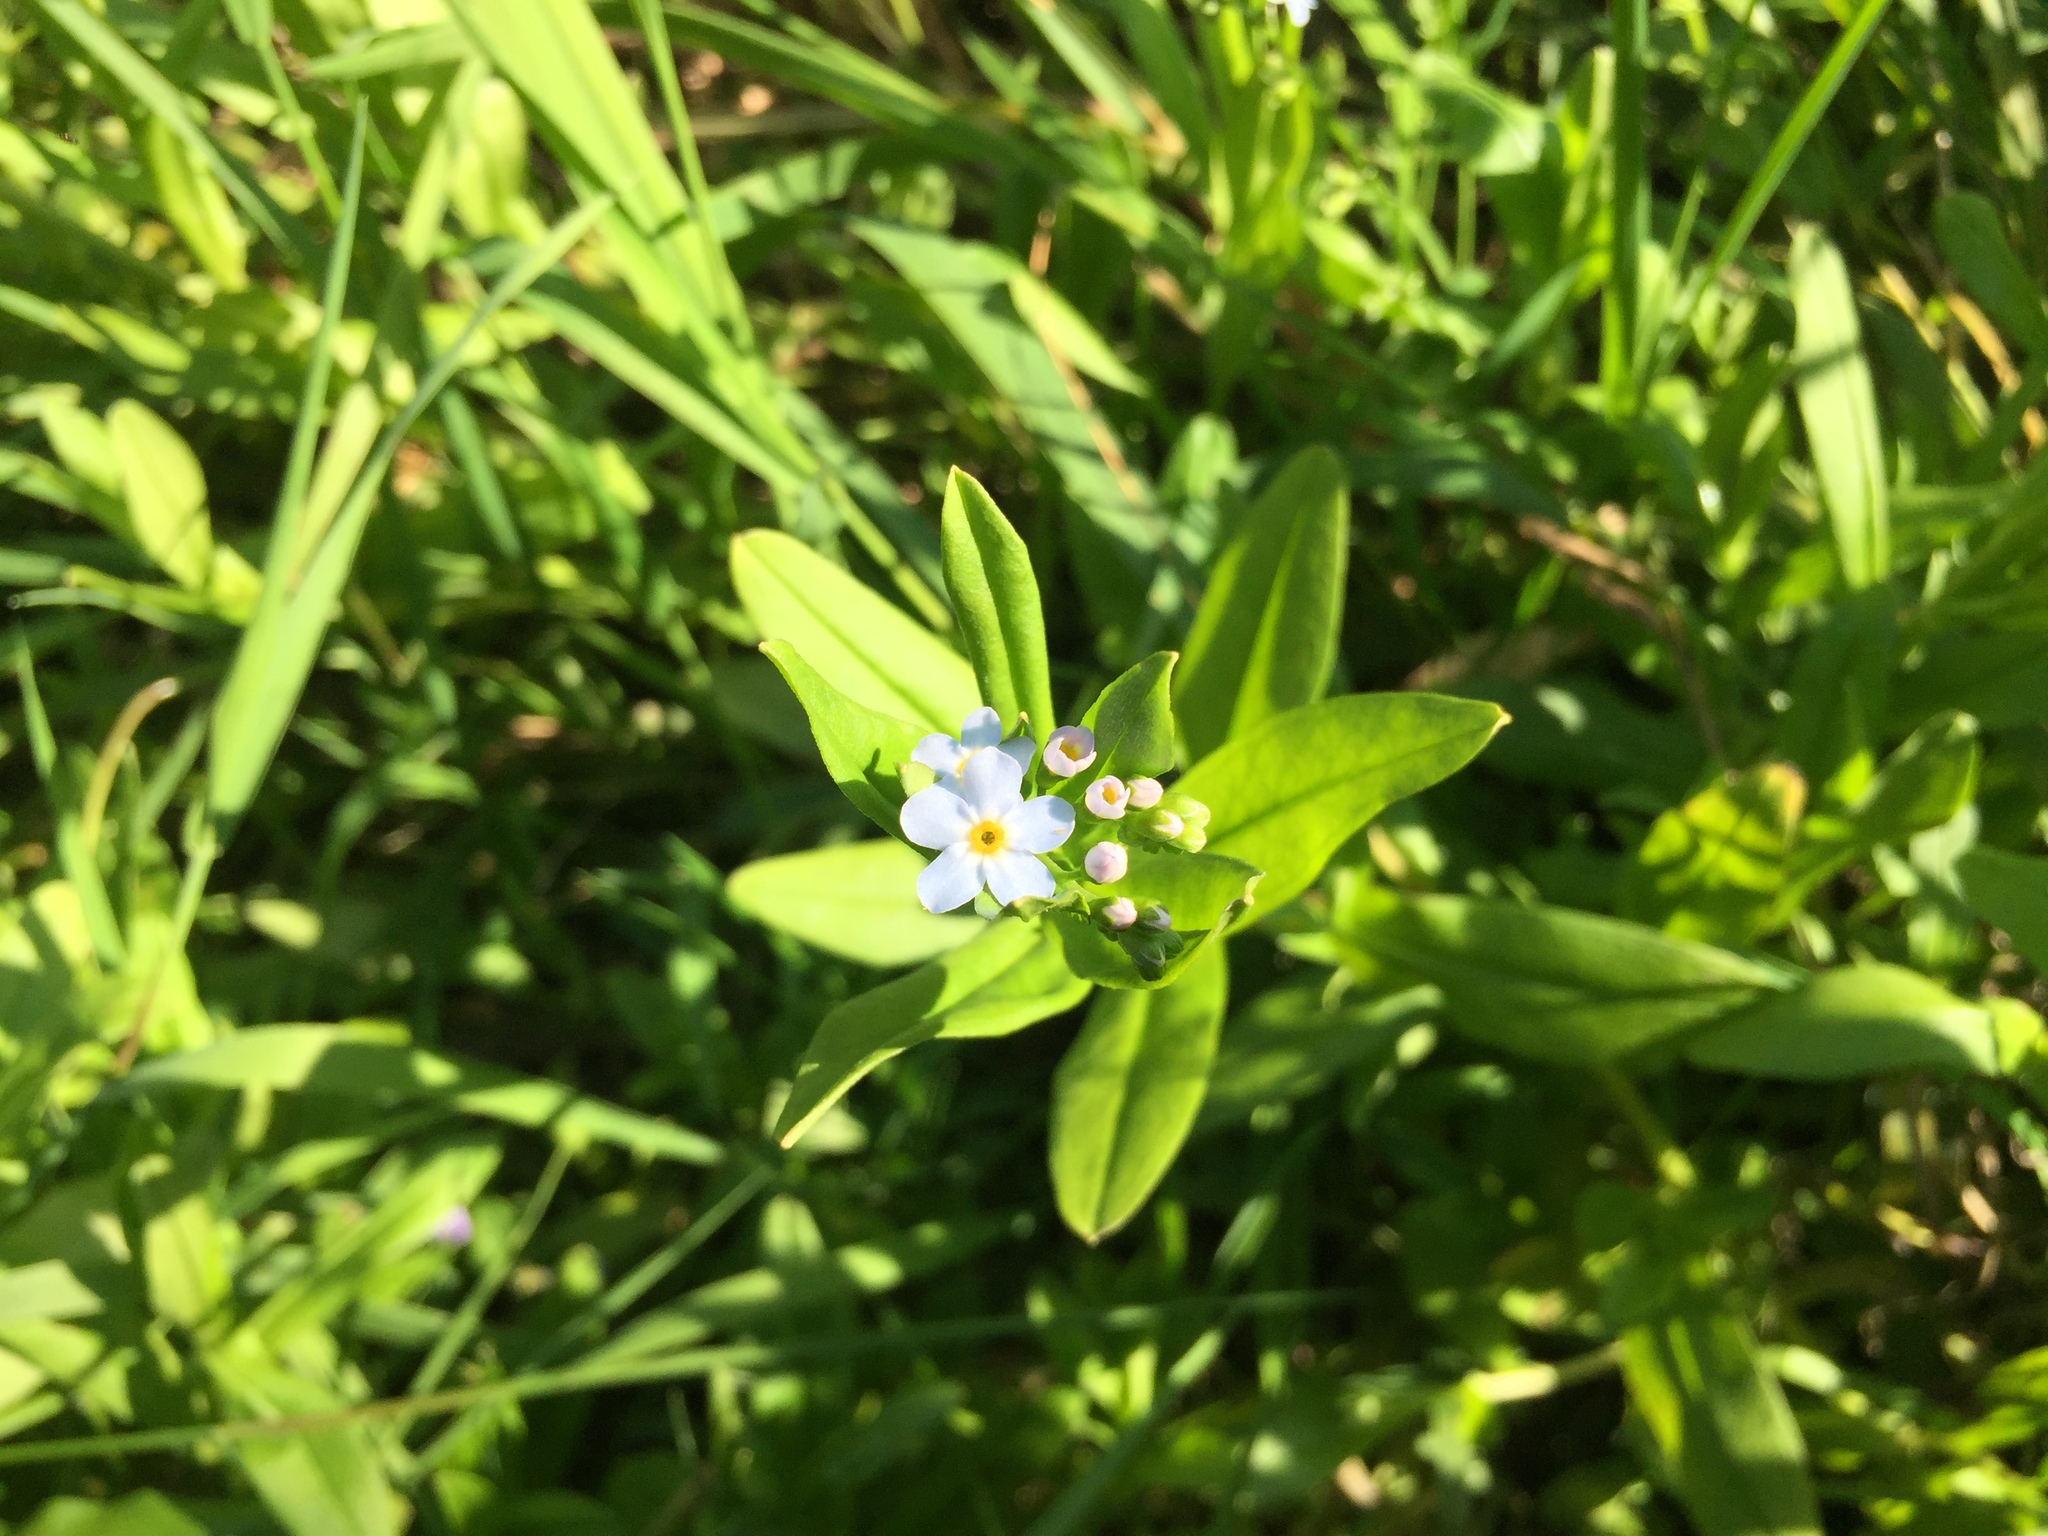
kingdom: Plantae
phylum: Tracheophyta
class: Magnoliopsida
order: Boraginales
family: Boraginaceae
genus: Myosotis
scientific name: Myosotis scorpioides
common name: Water forget-me-not
